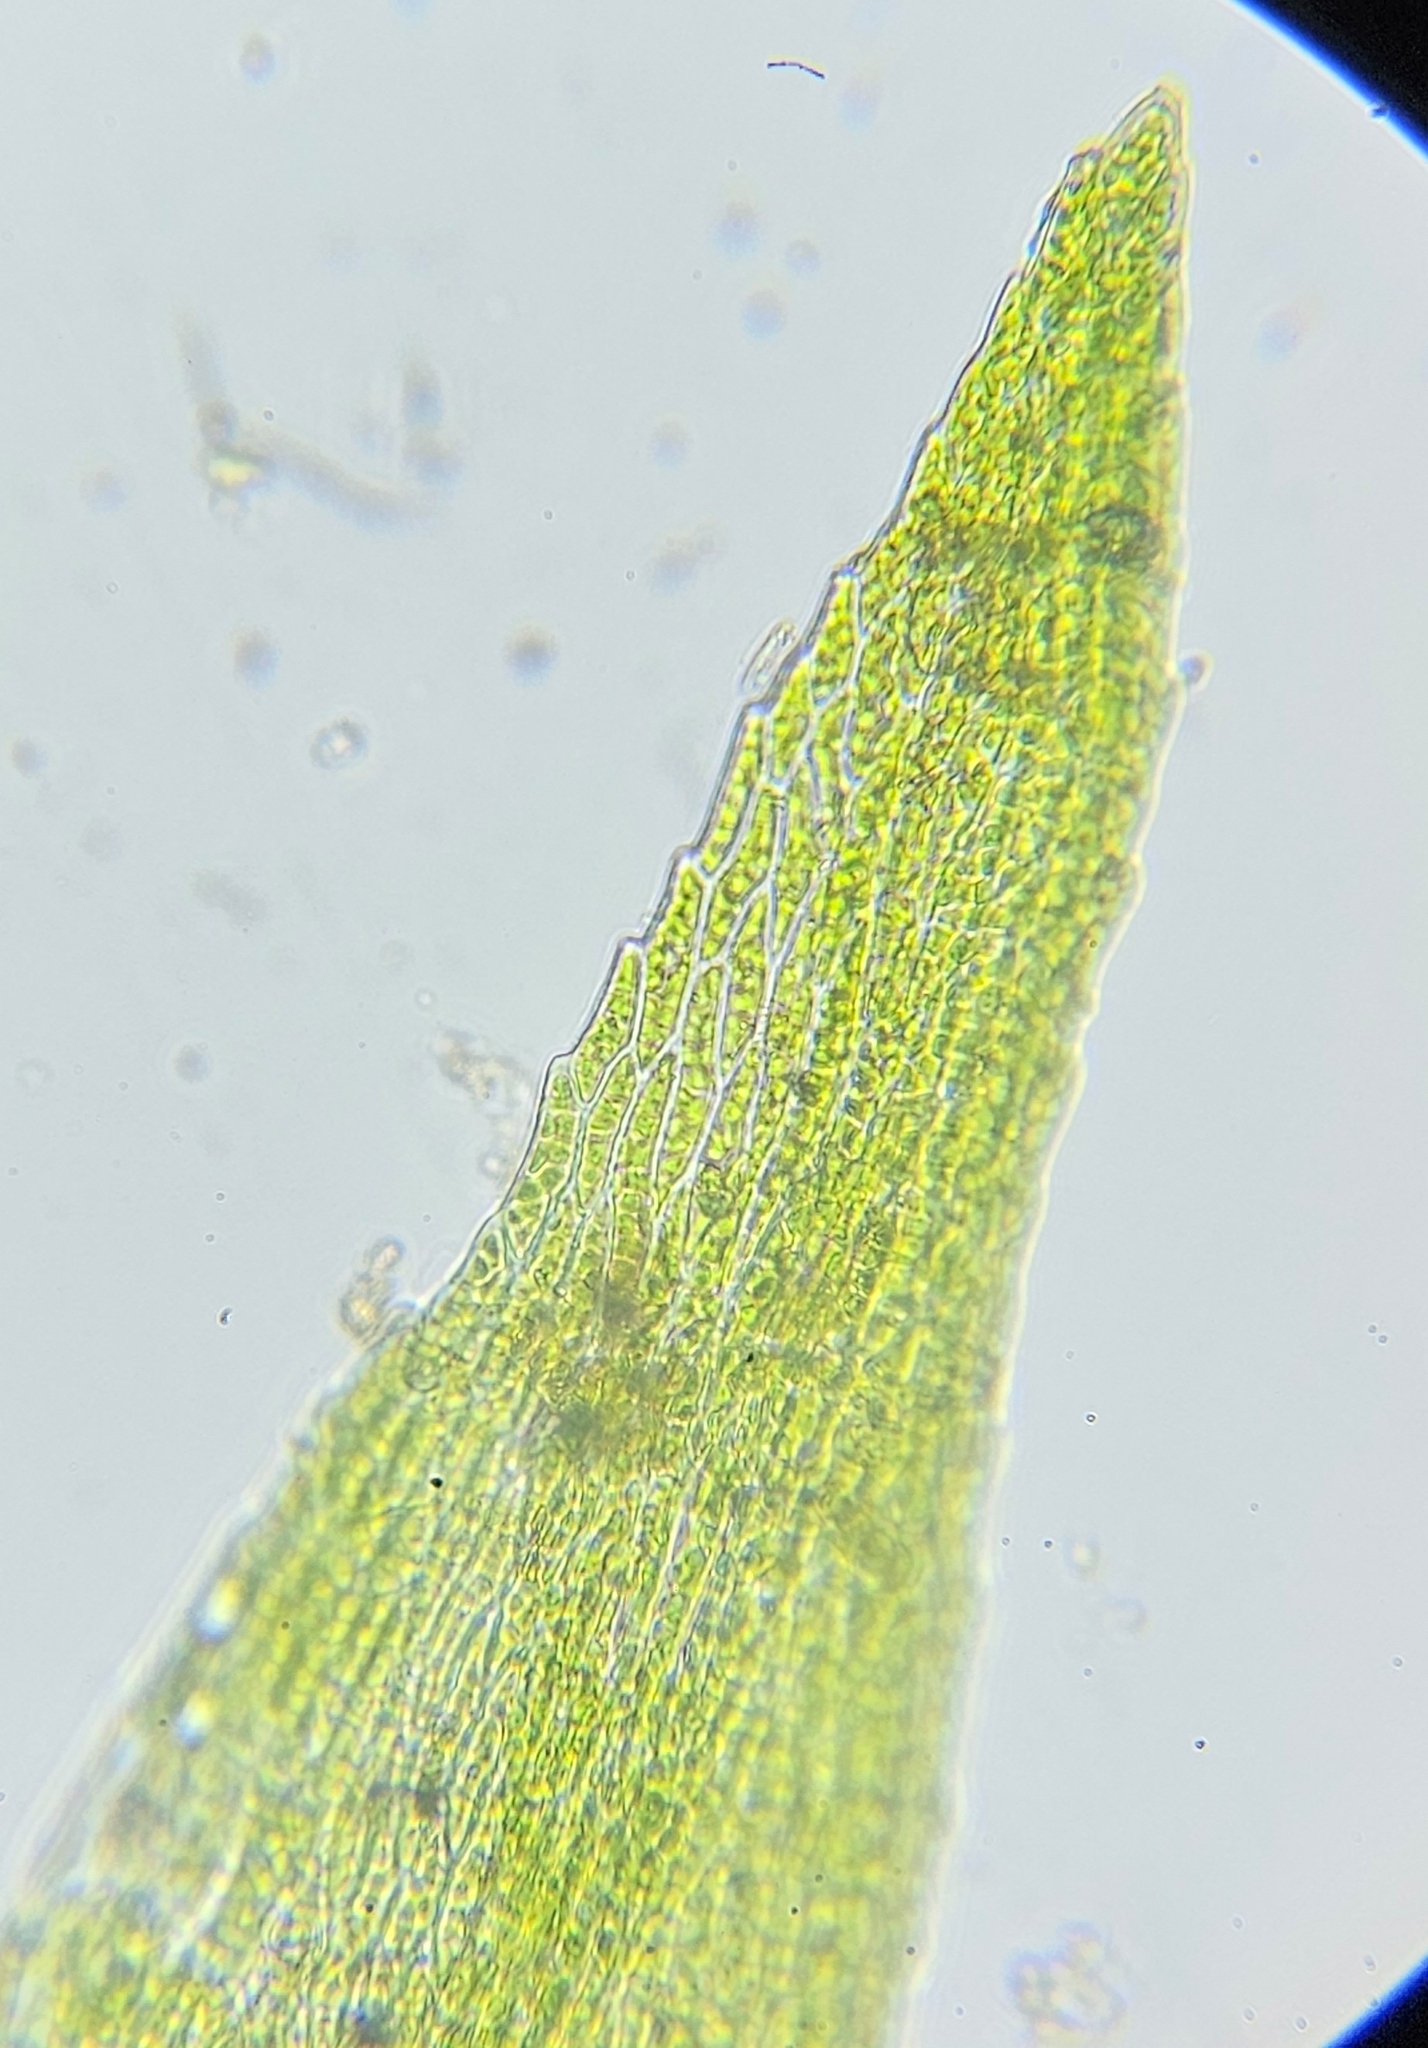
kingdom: Plantae
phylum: Bryophyta
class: Bryopsida
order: Hypnales
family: Brachytheciaceae
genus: Rhynchostegiella
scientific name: Rhynchostegiella teneriffae
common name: Teesdale feather-moss
